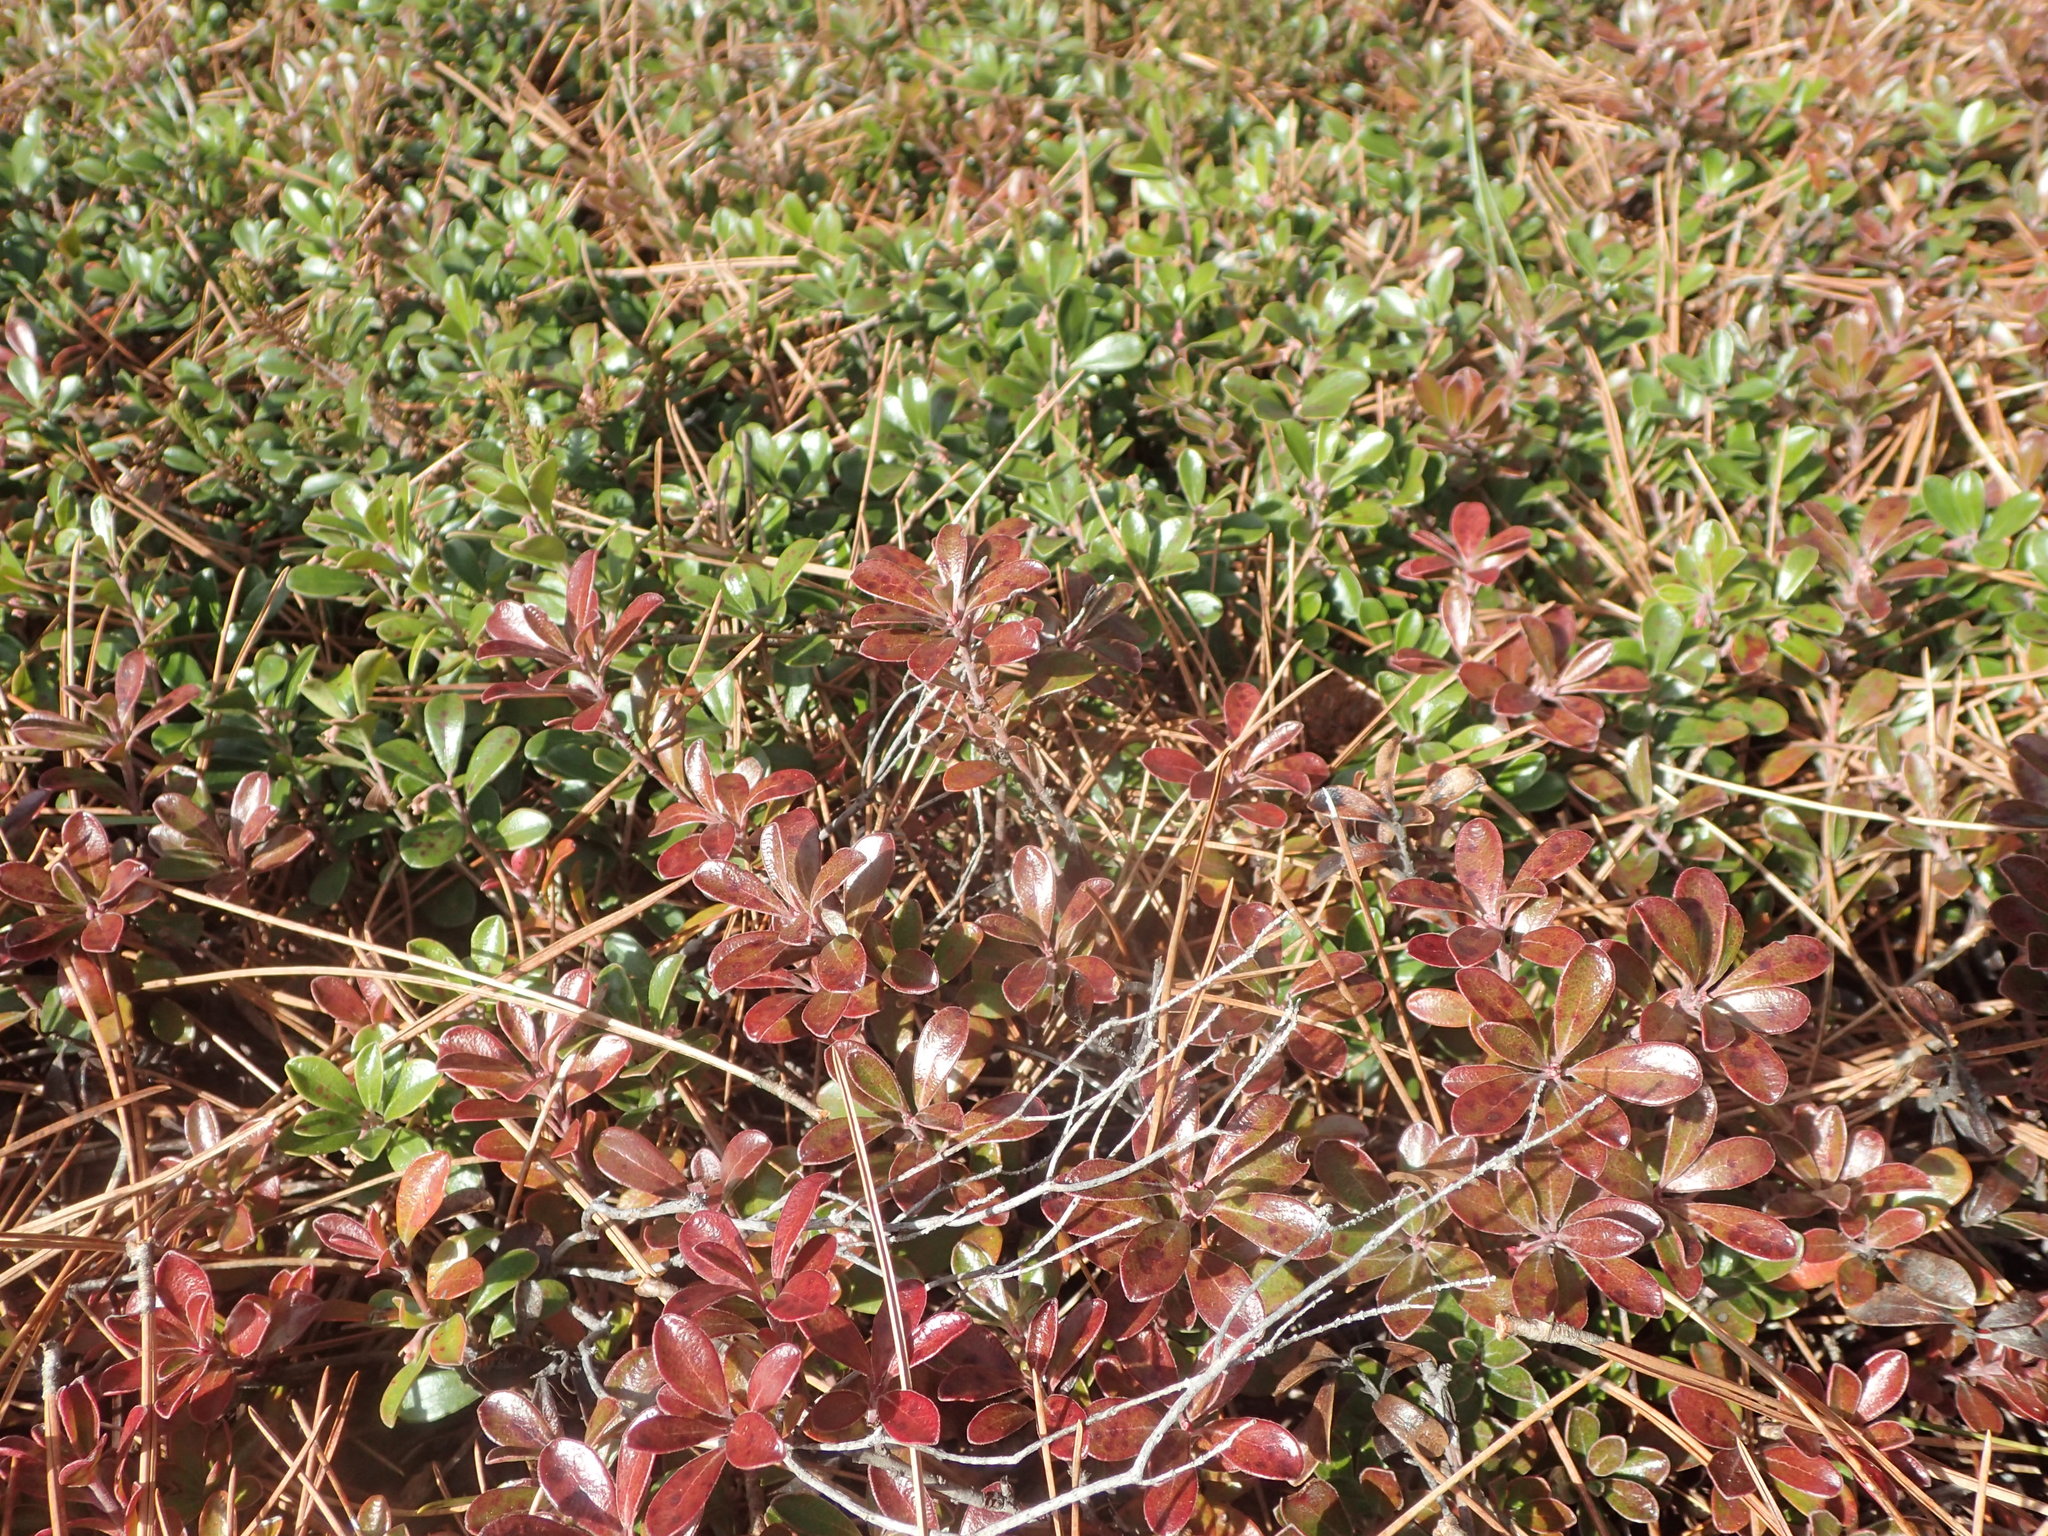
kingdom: Plantae
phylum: Tracheophyta
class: Magnoliopsida
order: Ericales
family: Ericaceae
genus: Arctostaphylos
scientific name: Arctostaphylos uva-ursi
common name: Bearberry
